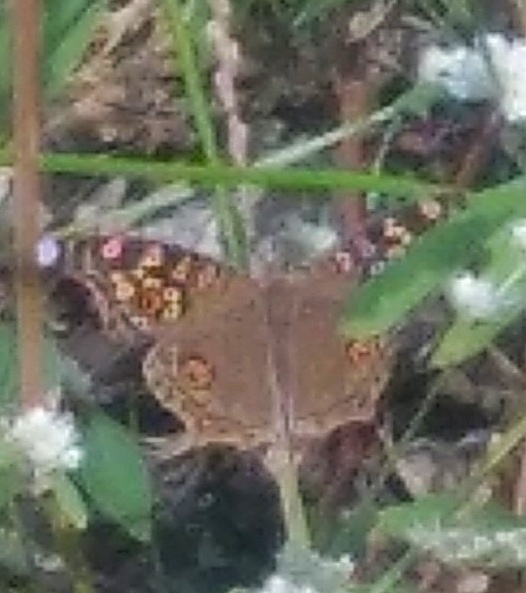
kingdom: Animalia
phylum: Arthropoda
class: Insecta
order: Lepidoptera
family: Nymphalidae
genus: Junonia
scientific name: Junonia lemonias
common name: Lemon pansy
